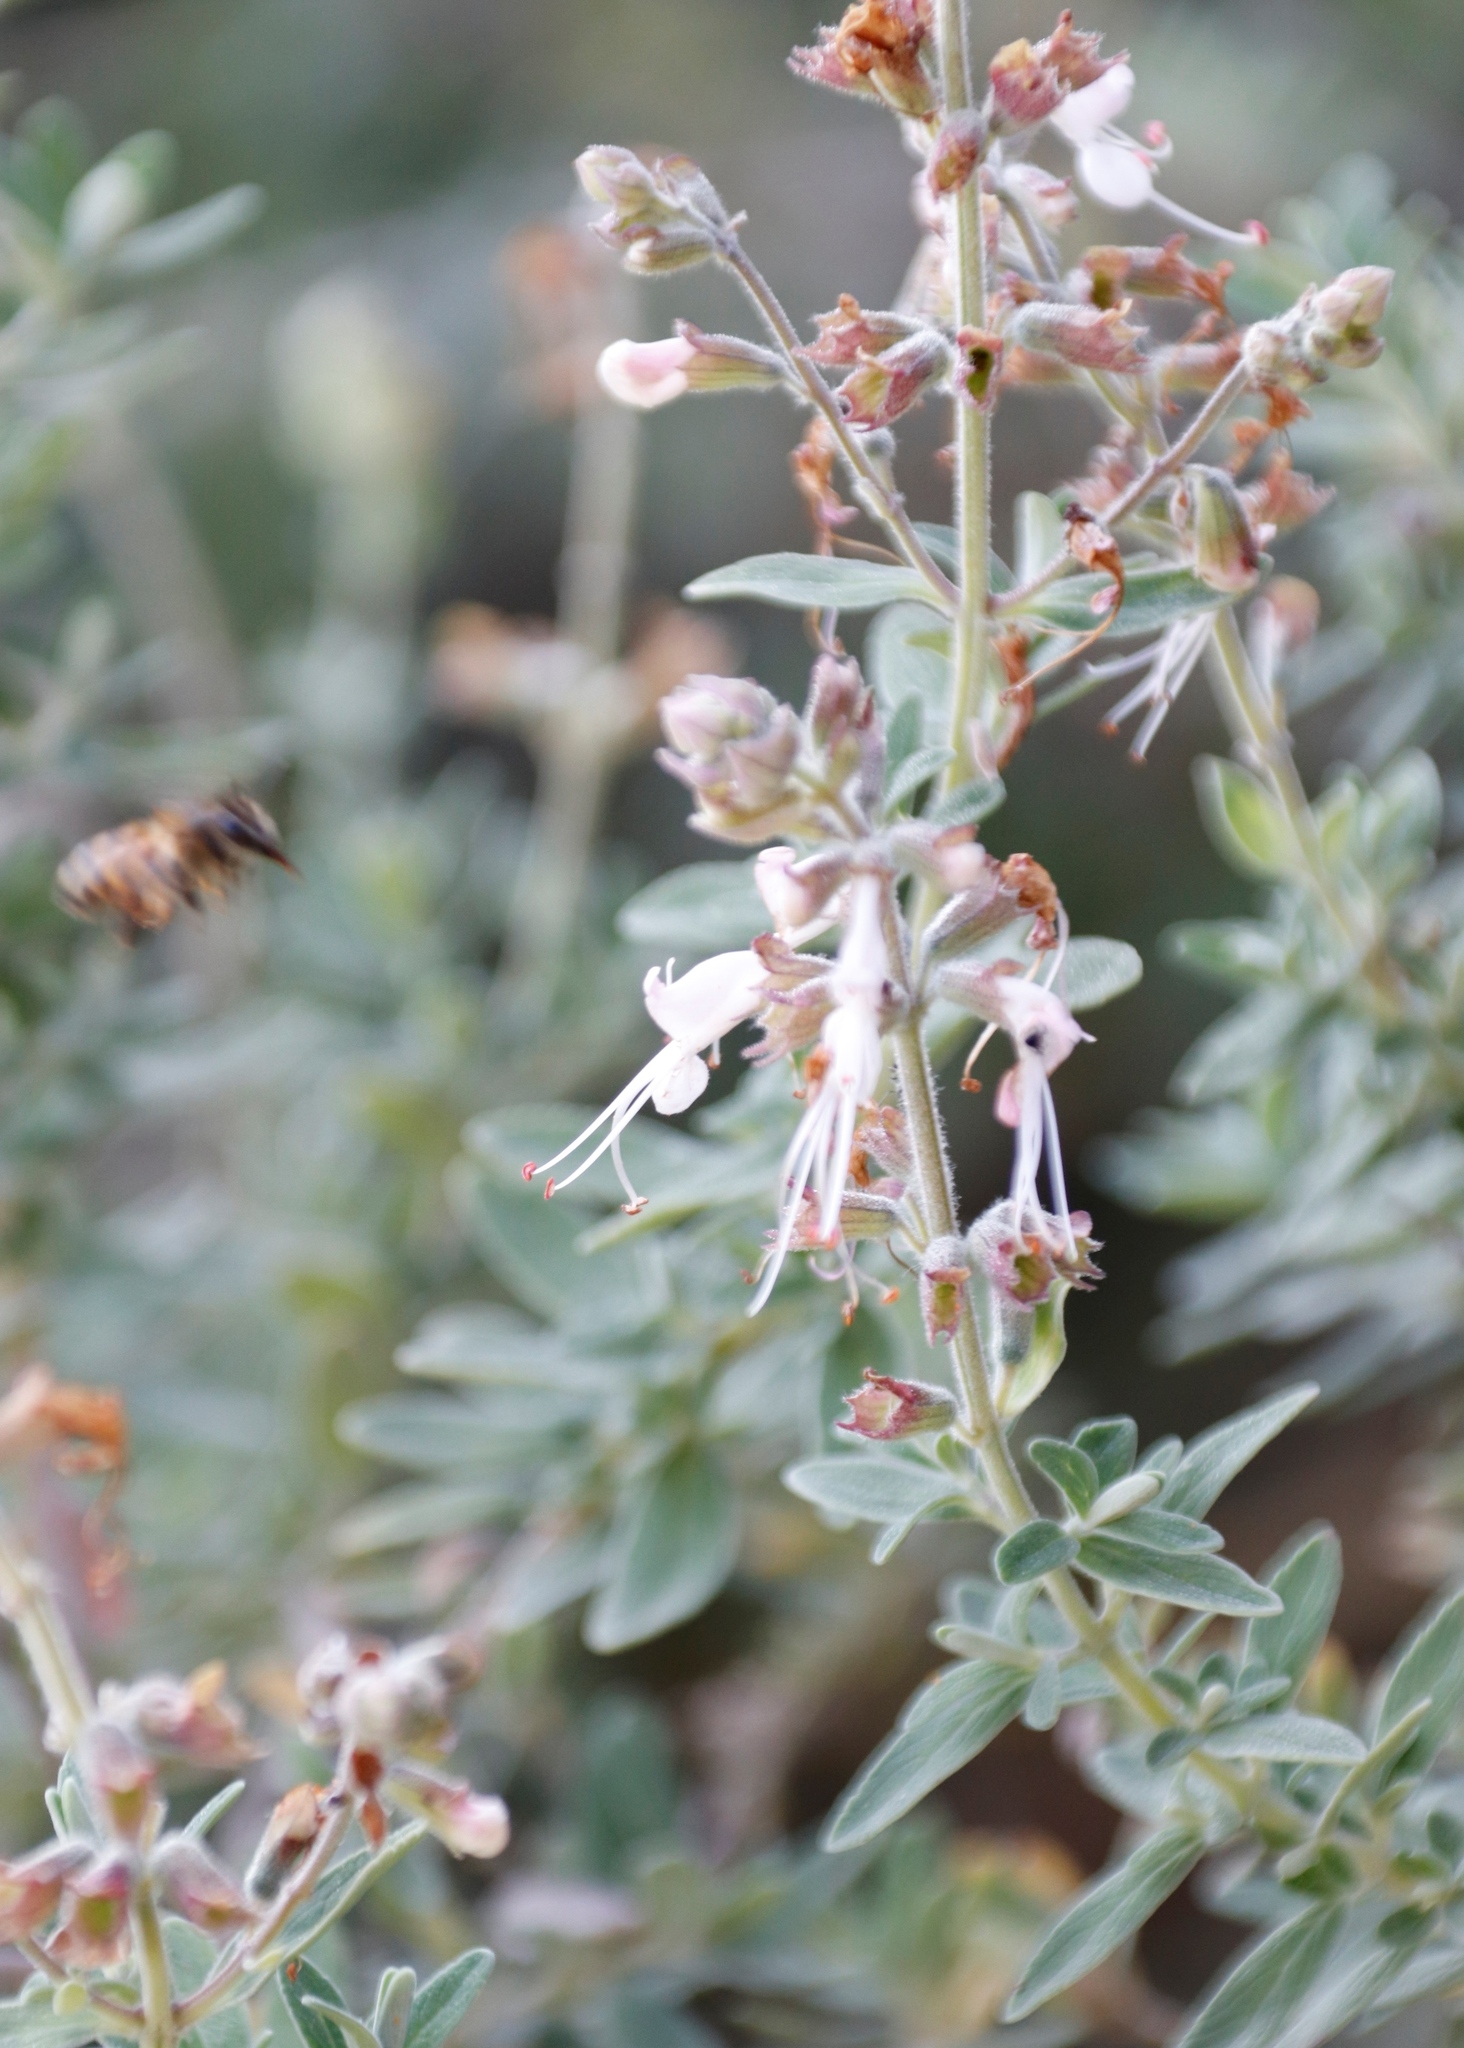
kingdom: Plantae
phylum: Tracheophyta
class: Magnoliopsida
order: Lamiales
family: Lamiaceae
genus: Syncolostemon
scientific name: Syncolostemon cinereum
